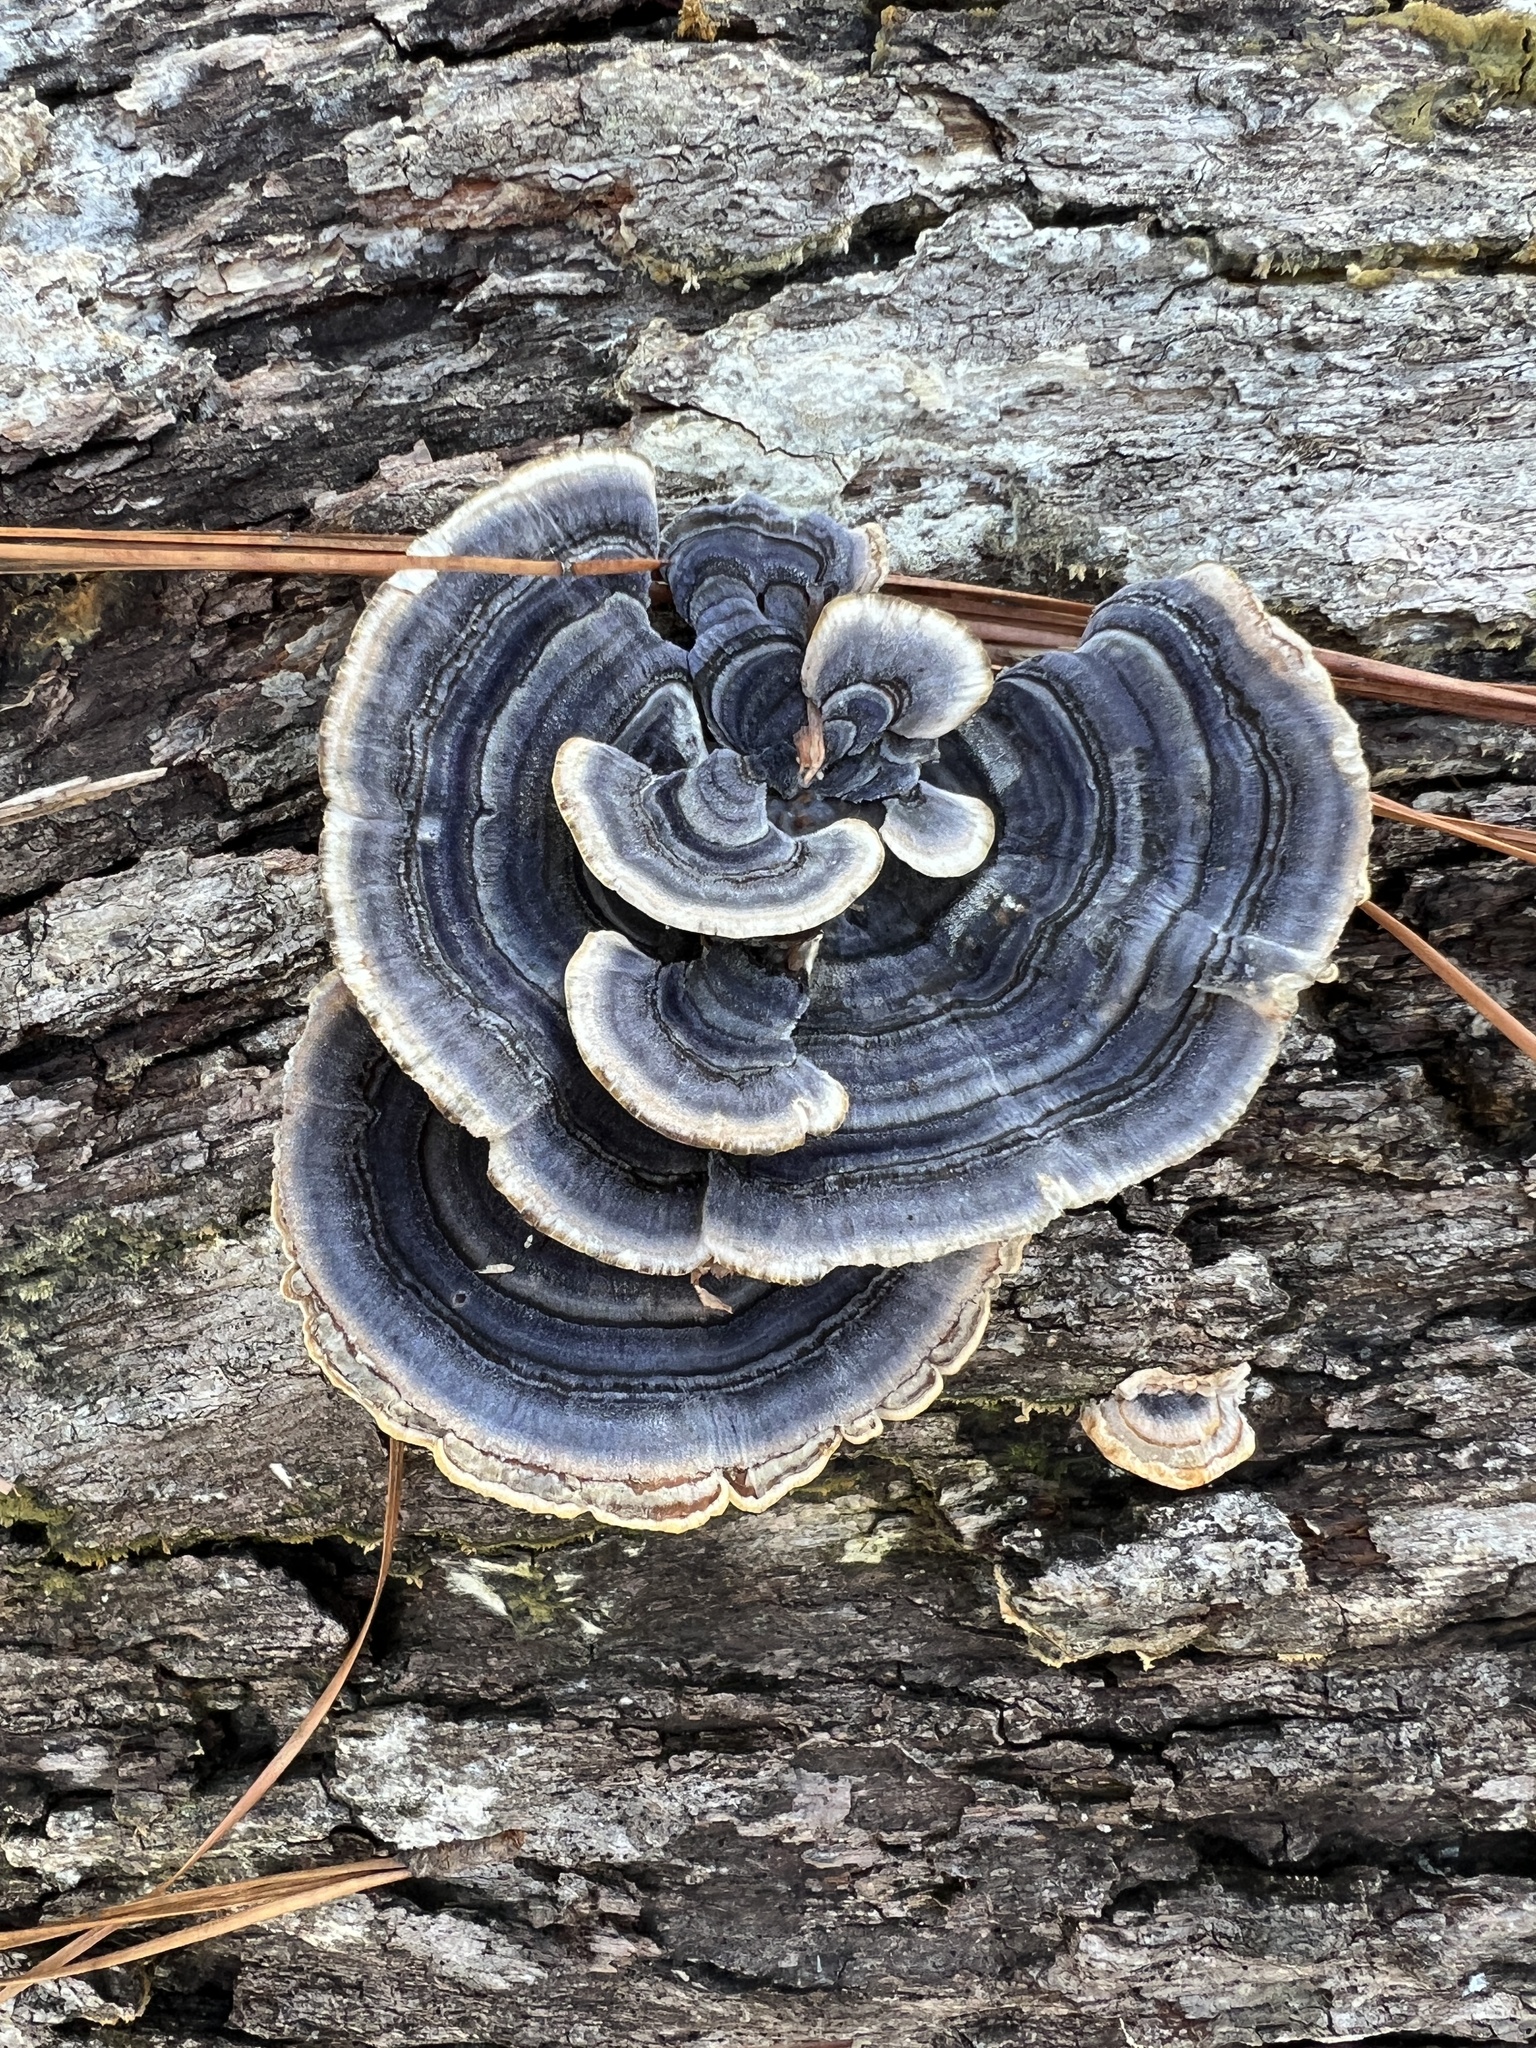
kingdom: Fungi
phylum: Basidiomycota
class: Agaricomycetes
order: Polyporales
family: Polyporaceae
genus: Trametes
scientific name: Trametes versicolor
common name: Turkeytail
